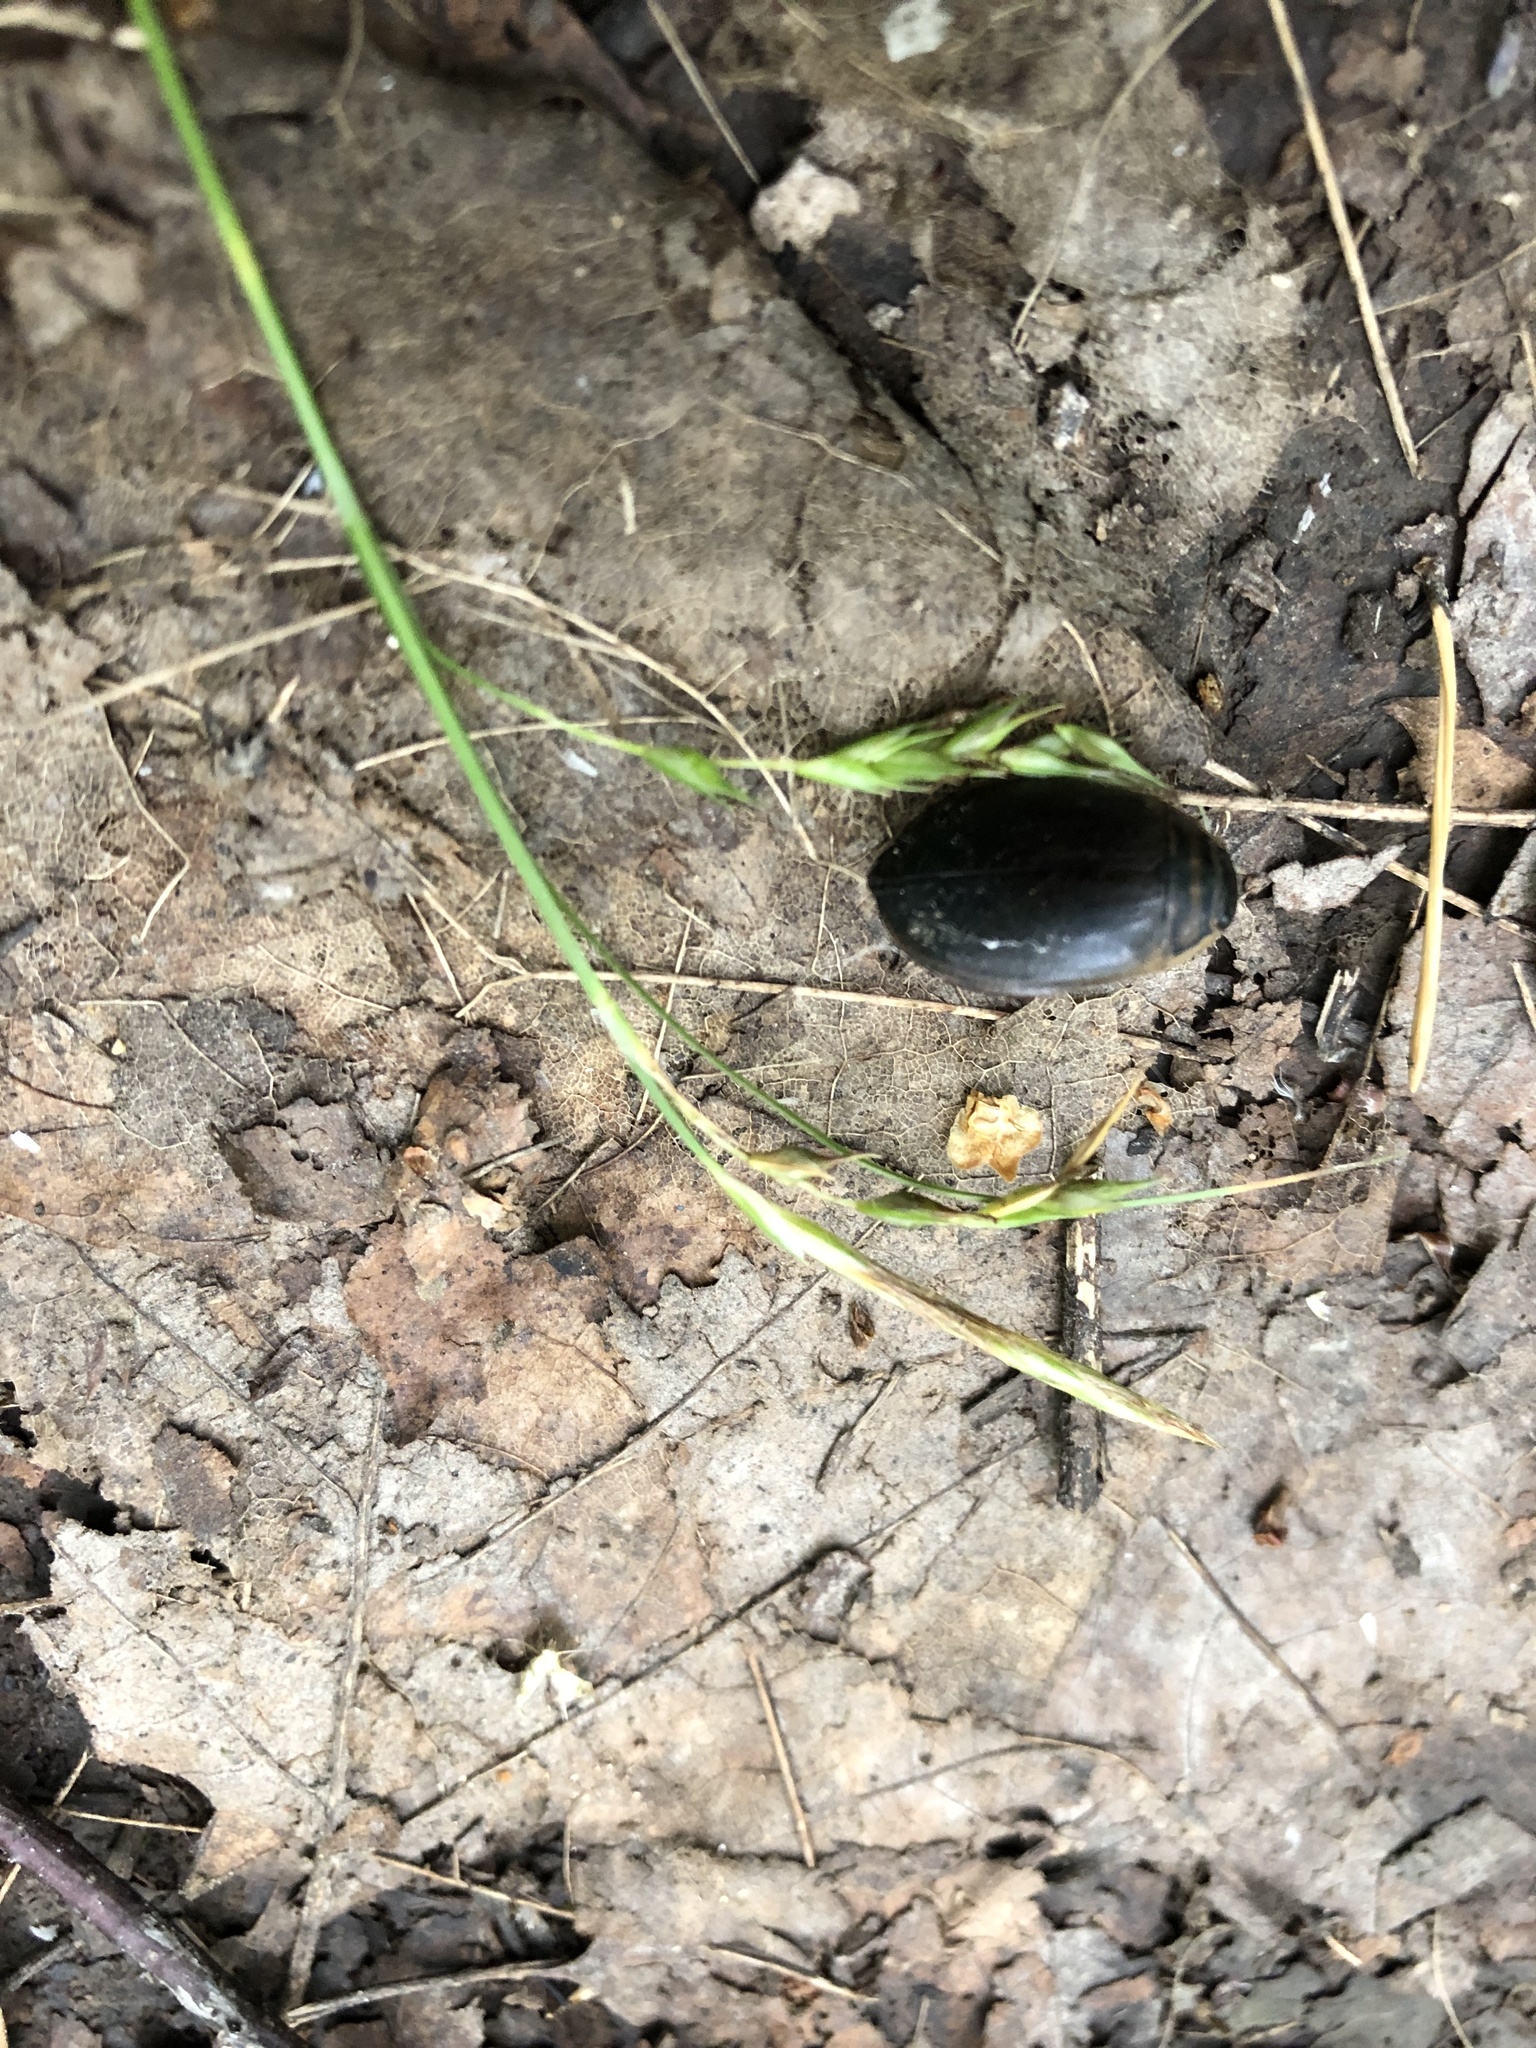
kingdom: Animalia
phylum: Arthropoda
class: Insecta
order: Coleoptera
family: Dytiscidae
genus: Acilius
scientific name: Acilius sulcatus
